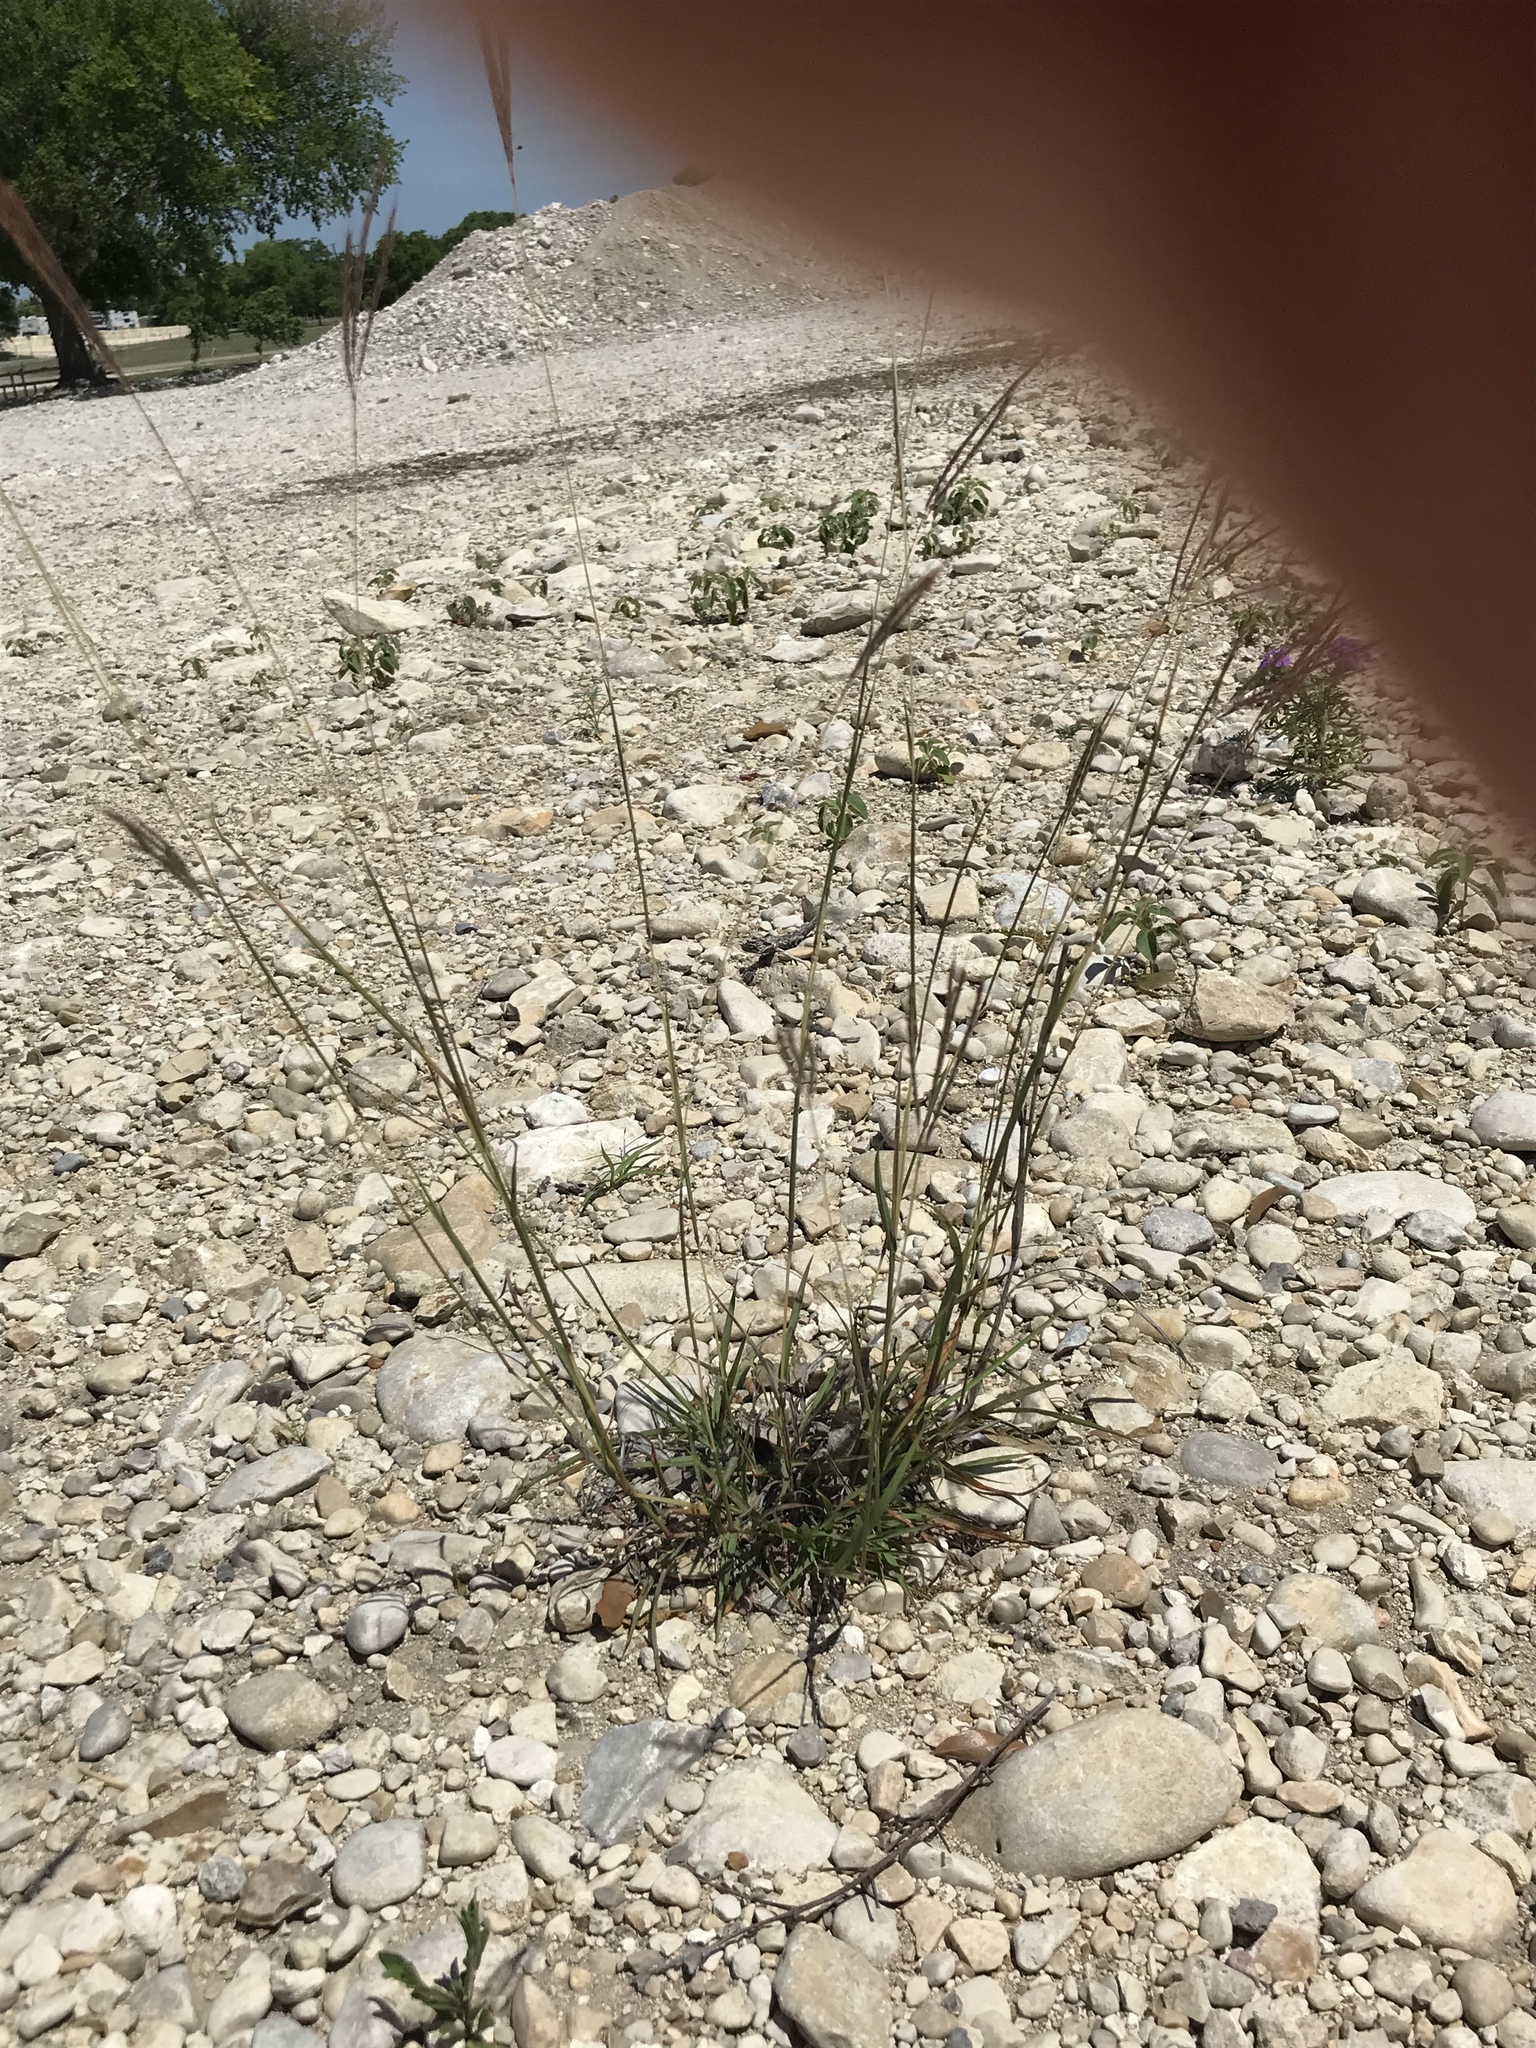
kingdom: Plantae
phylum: Tracheophyta
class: Liliopsida
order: Poales
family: Poaceae
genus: Bothriochloa
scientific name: Bothriochloa ischaemum
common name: Yellow bluestem
